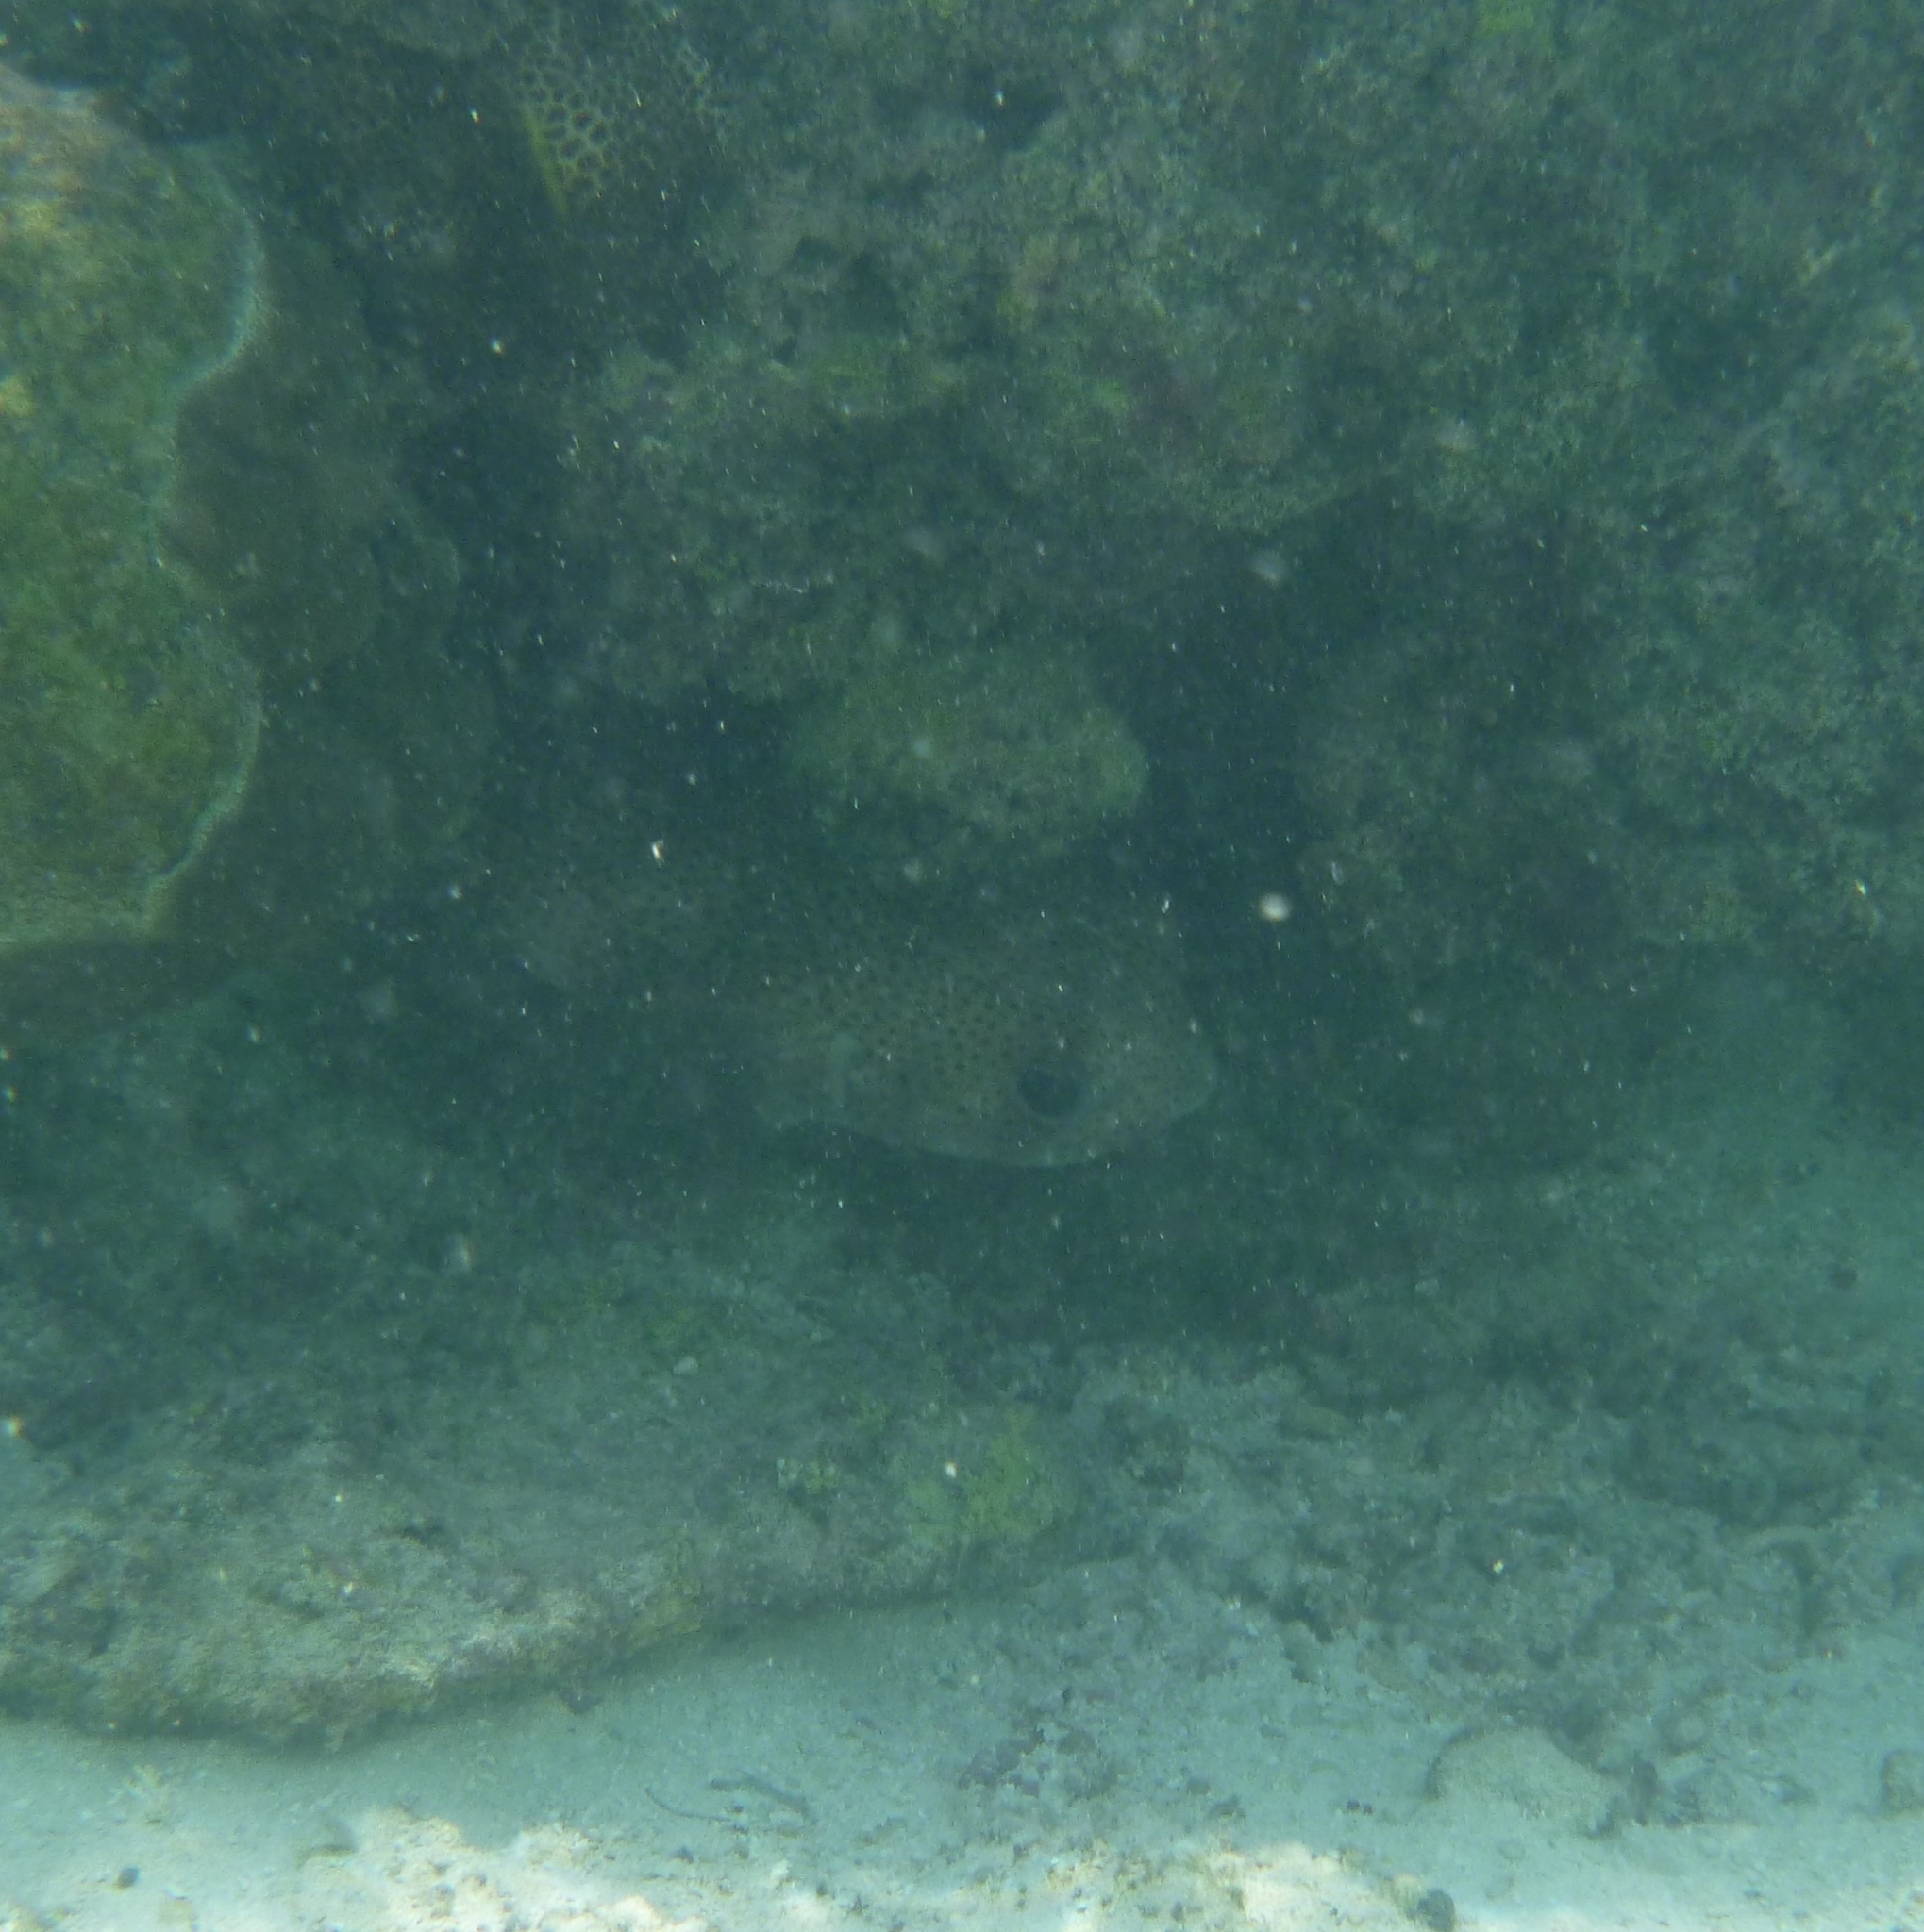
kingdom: Animalia
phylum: Chordata
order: Tetraodontiformes
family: Diodontidae
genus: Diodon
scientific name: Diodon hystrix
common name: Giant porcupinefish
